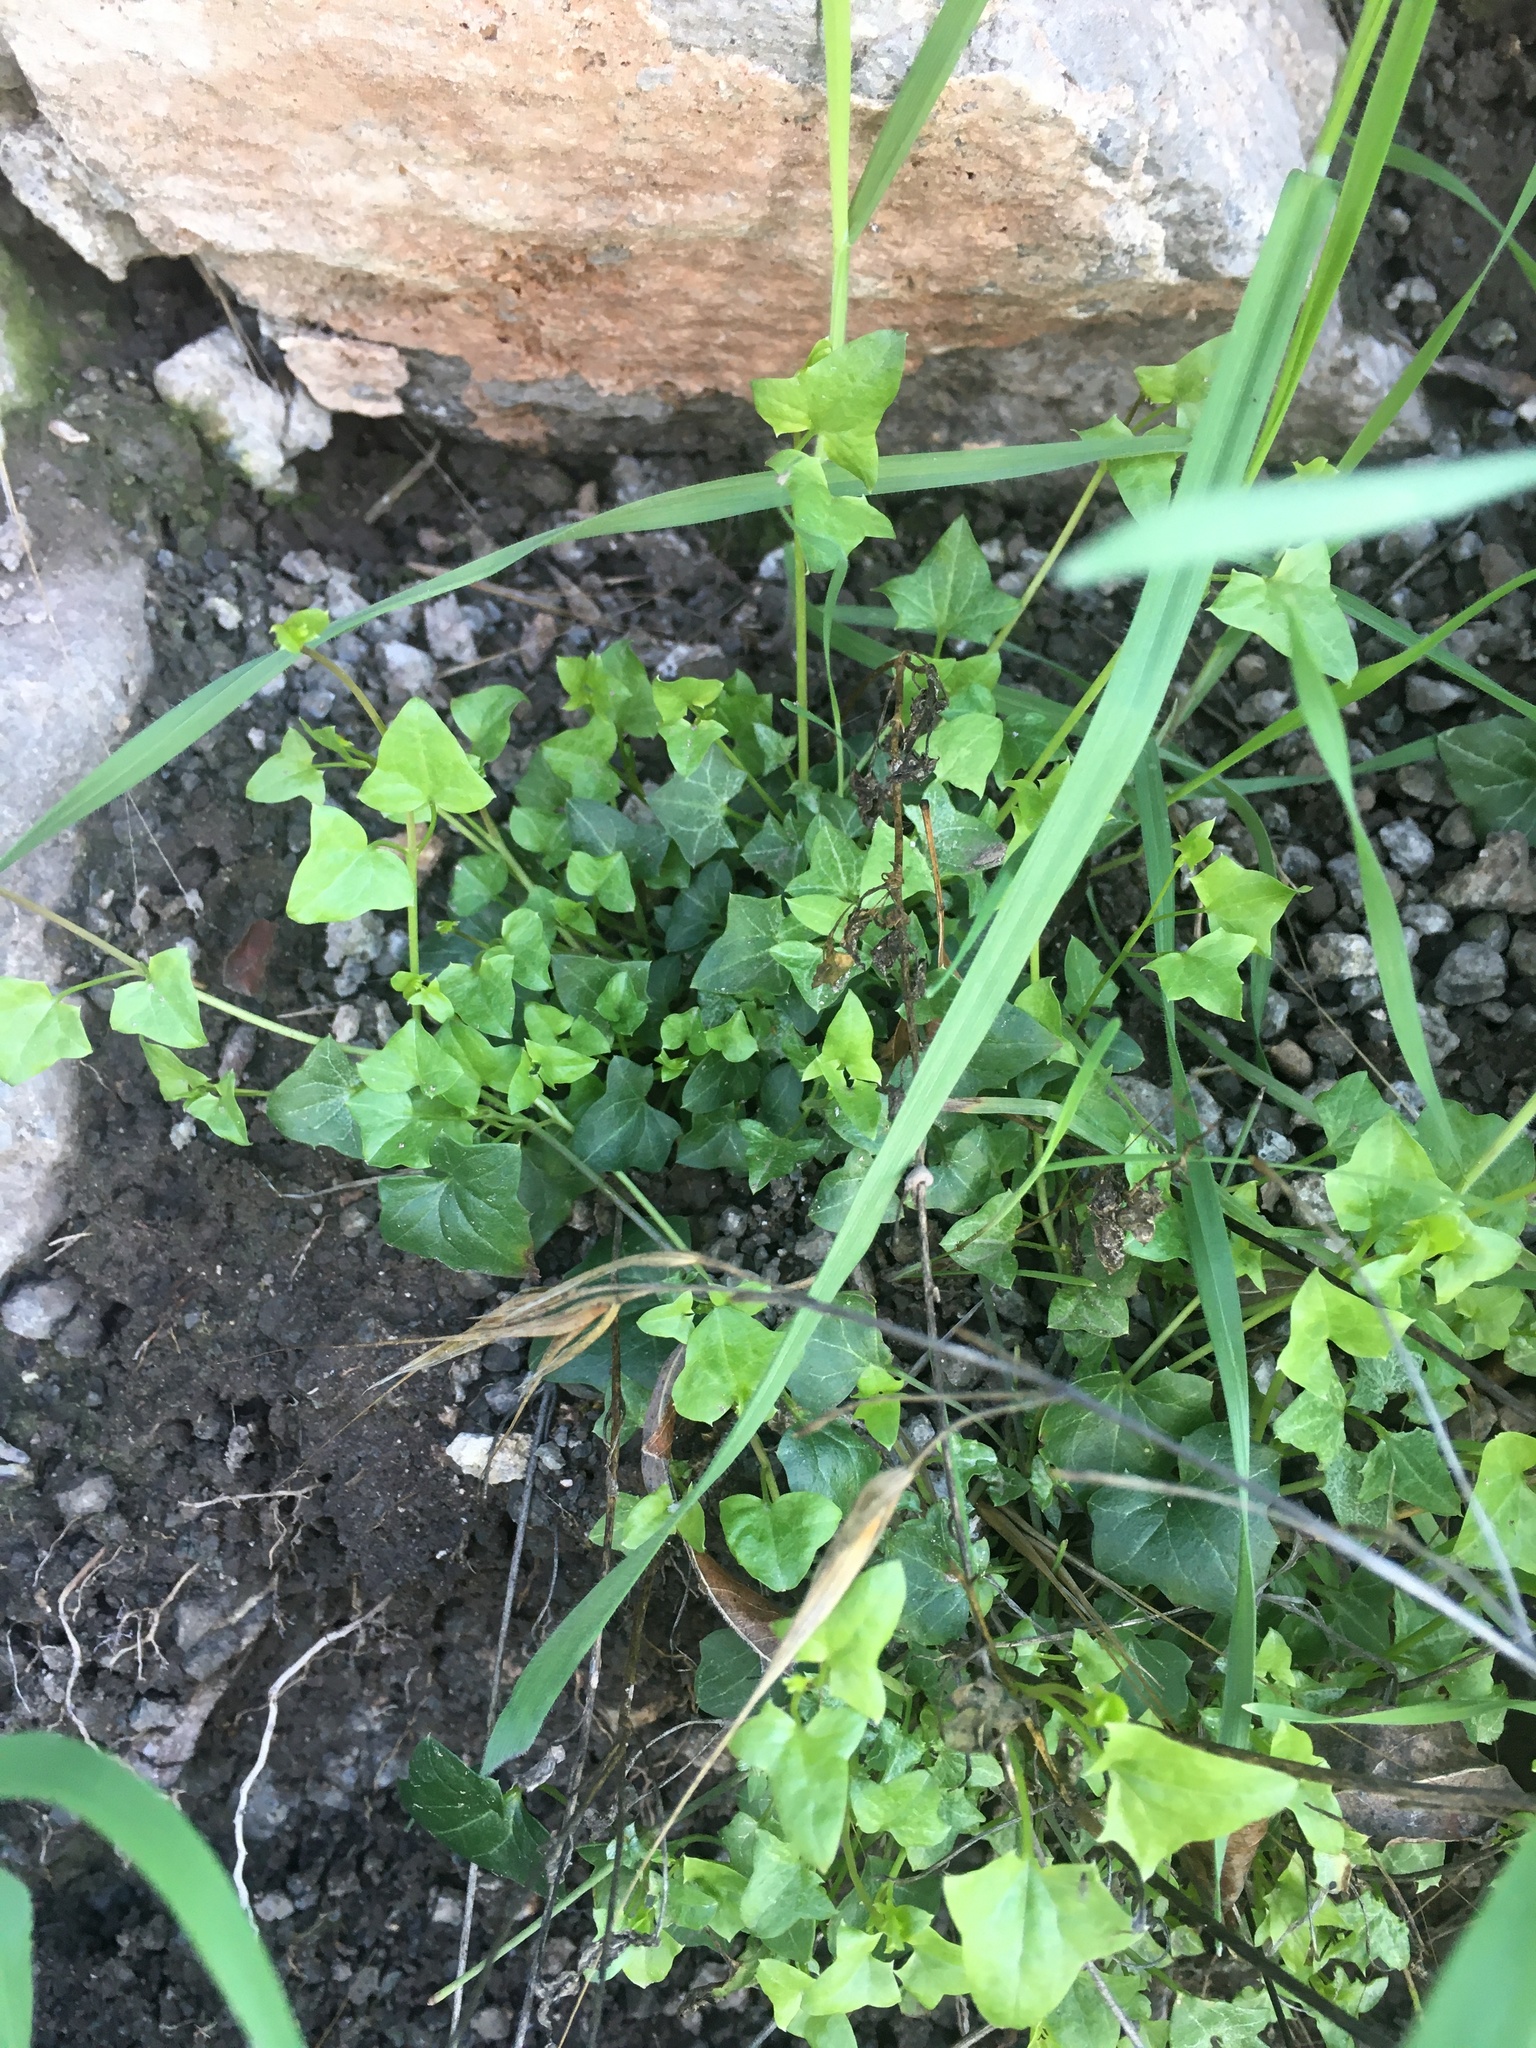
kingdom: Plantae
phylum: Tracheophyta
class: Magnoliopsida
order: Lamiales
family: Plantaginaceae
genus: Maurandella
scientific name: Maurandella antirrhiniflora
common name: Violet twining-snapdragon
